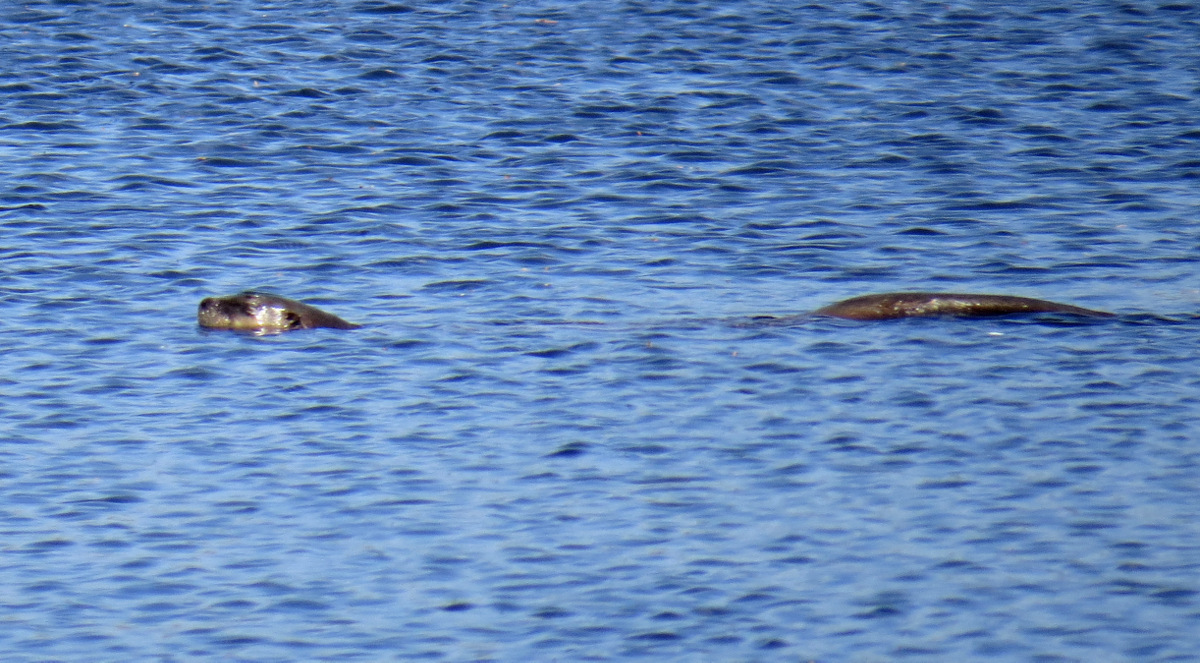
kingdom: Animalia
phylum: Chordata
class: Mammalia
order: Carnivora
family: Mustelidae
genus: Lontra
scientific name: Lontra canadensis
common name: North american river otter
